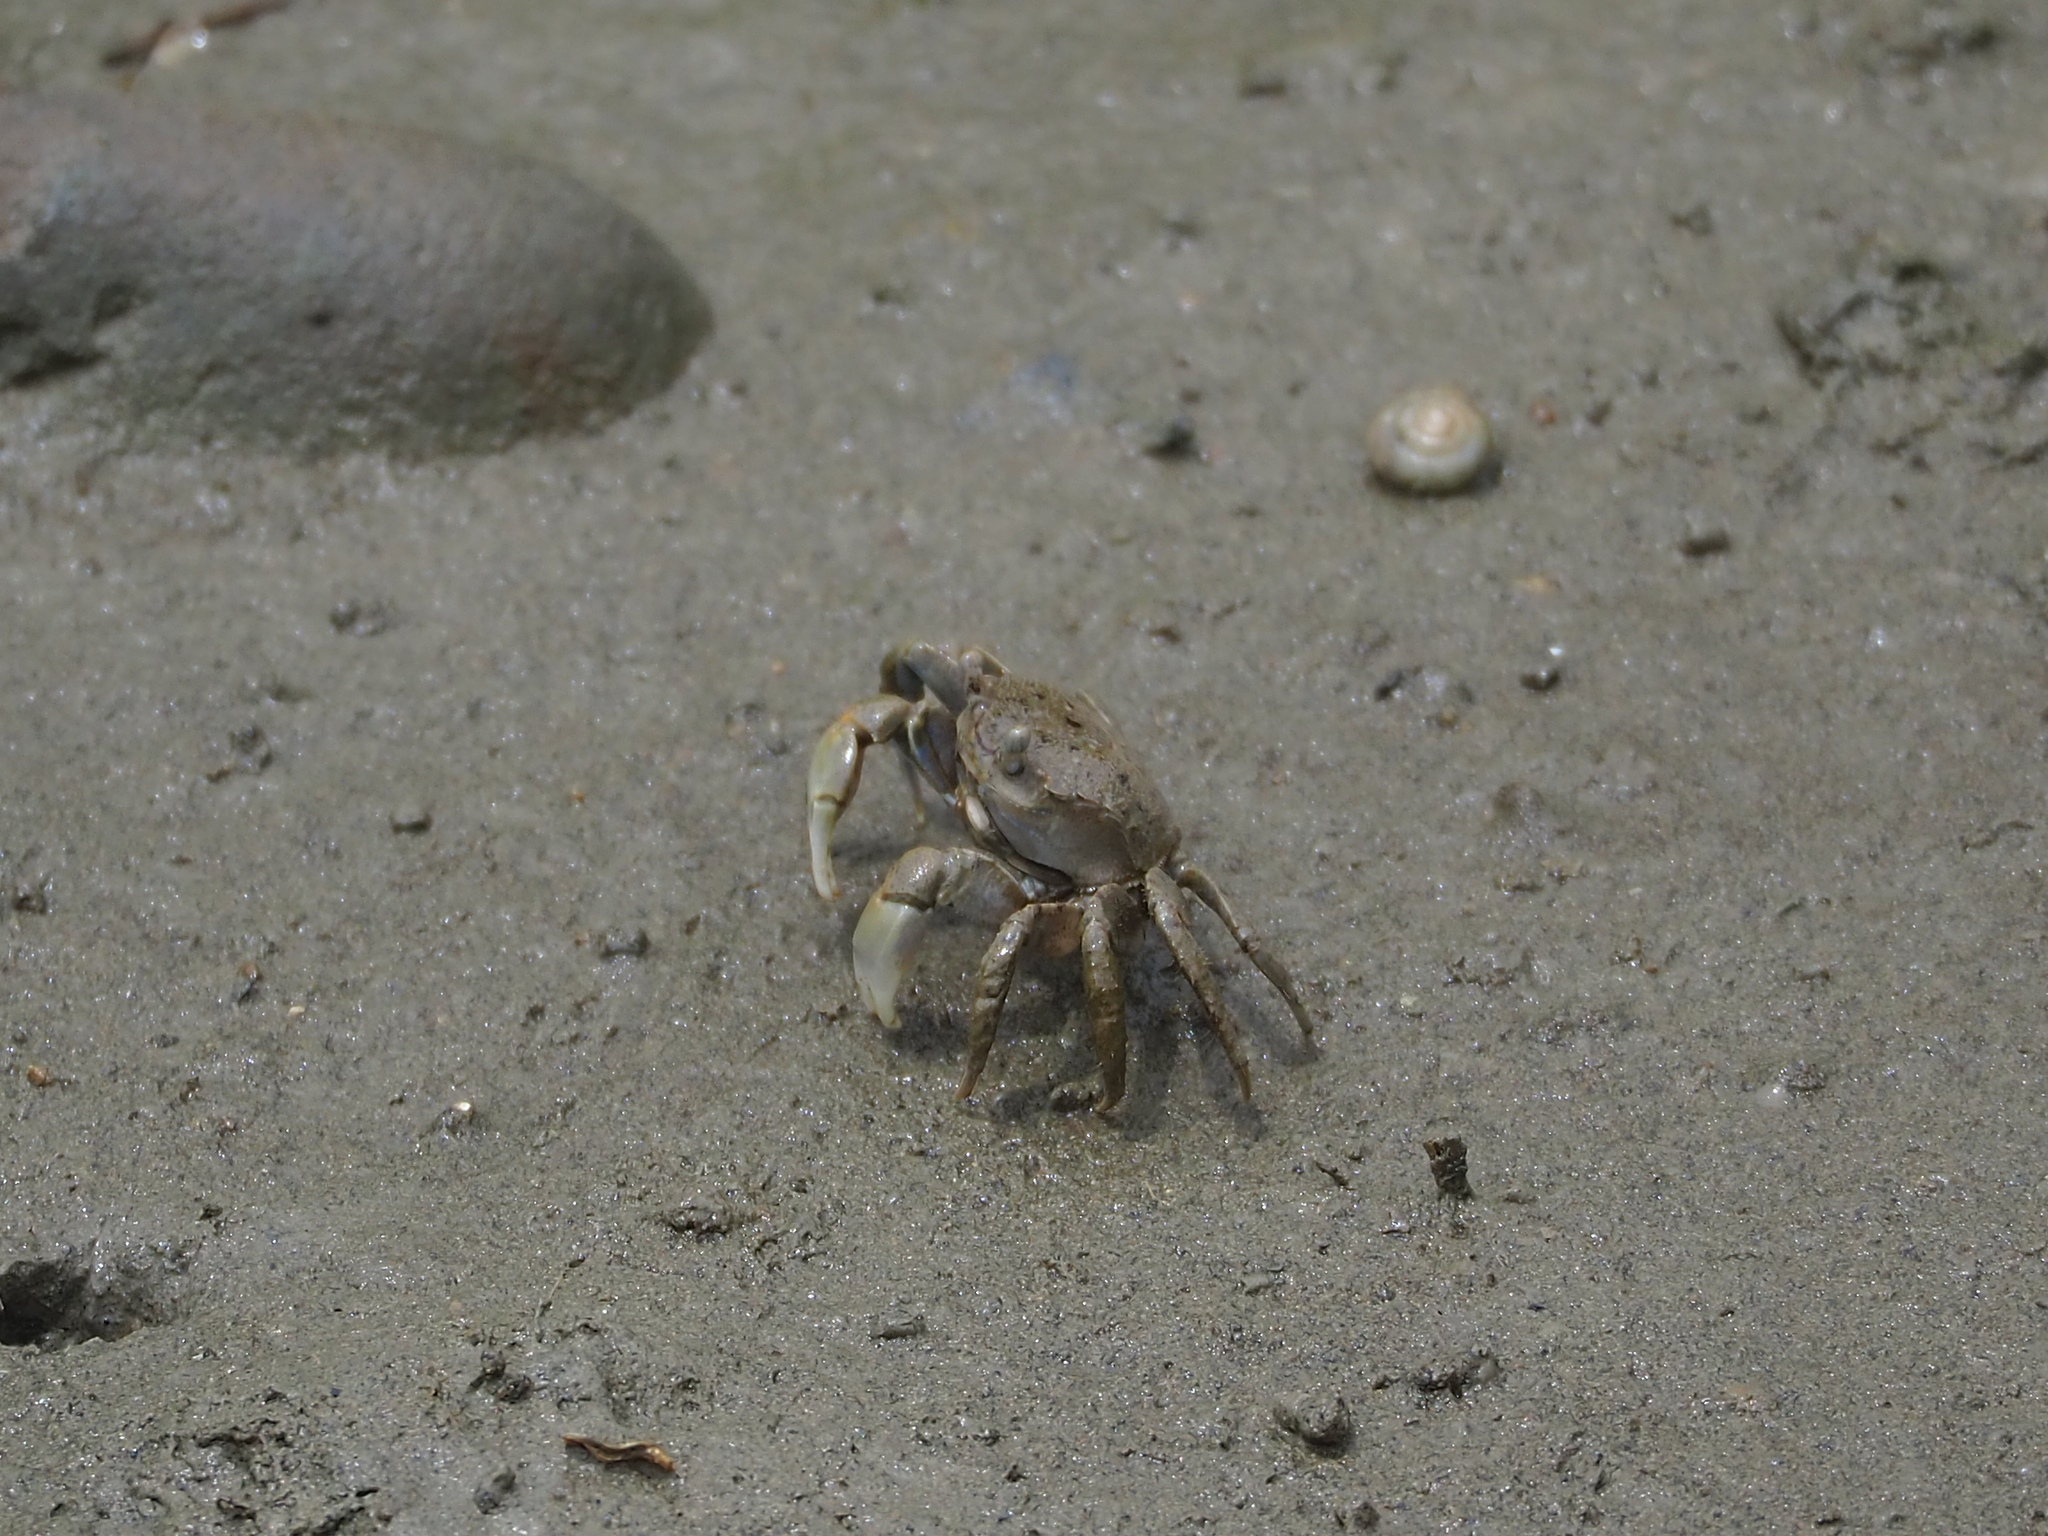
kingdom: Animalia
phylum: Arthropoda
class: Malacostraca
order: Decapoda
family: Varunidae
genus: Helicana
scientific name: Helicana doerjesi
